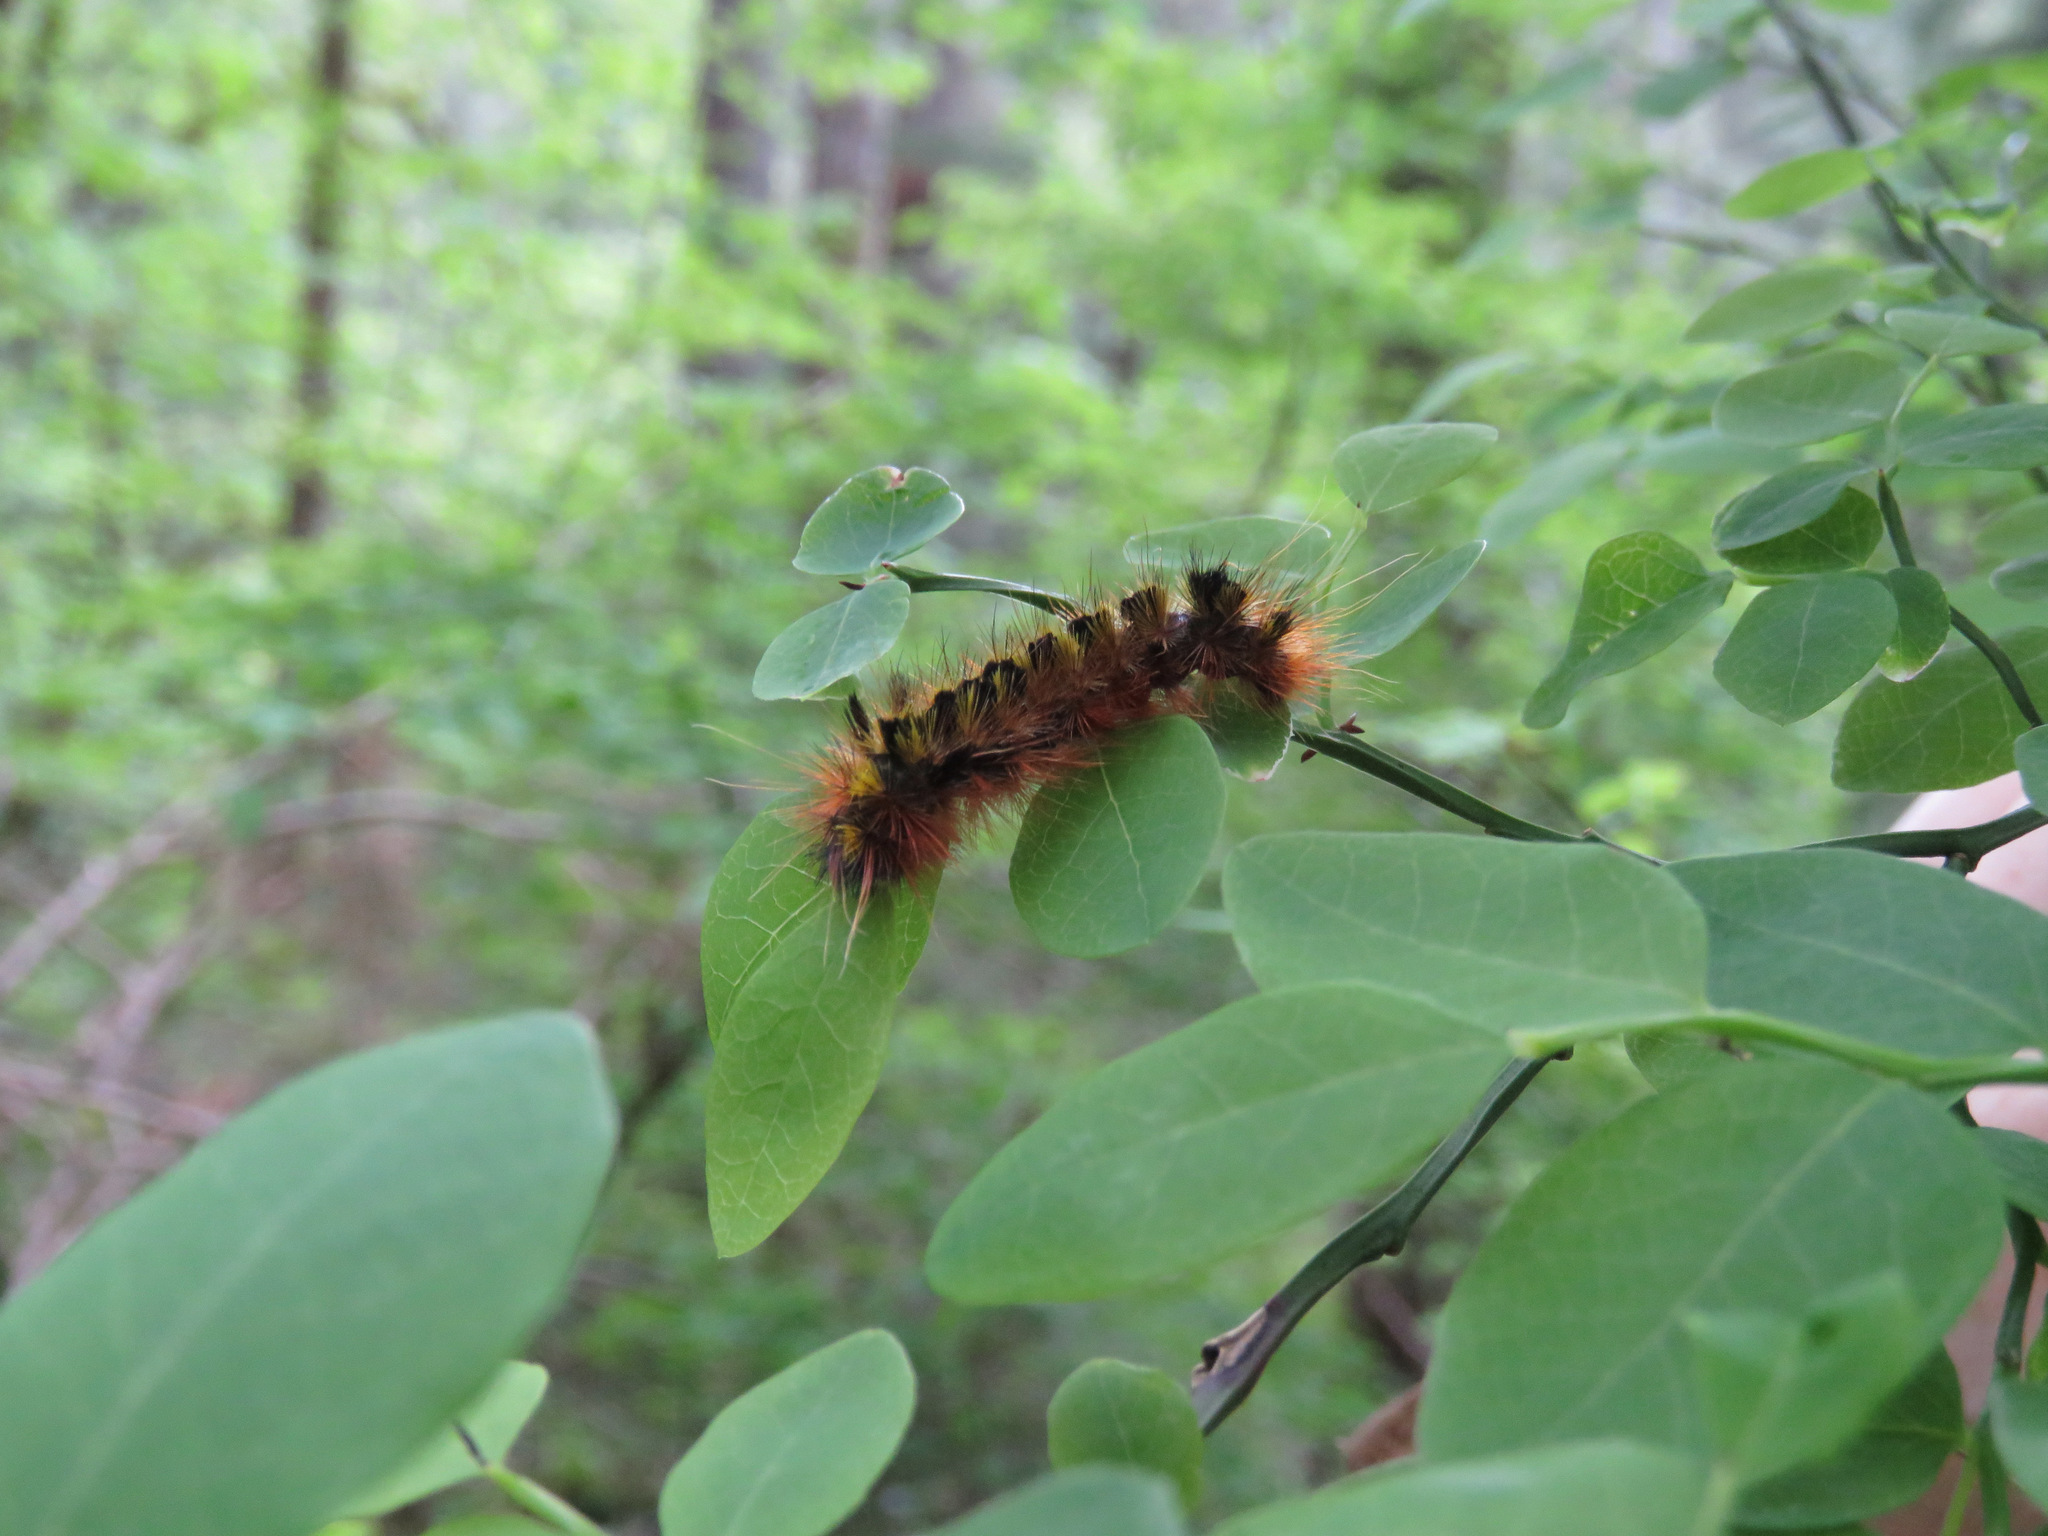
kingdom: Animalia
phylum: Arthropoda
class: Insecta
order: Lepidoptera
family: Erebidae
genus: Lophocampa
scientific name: Lophocampa argentata
